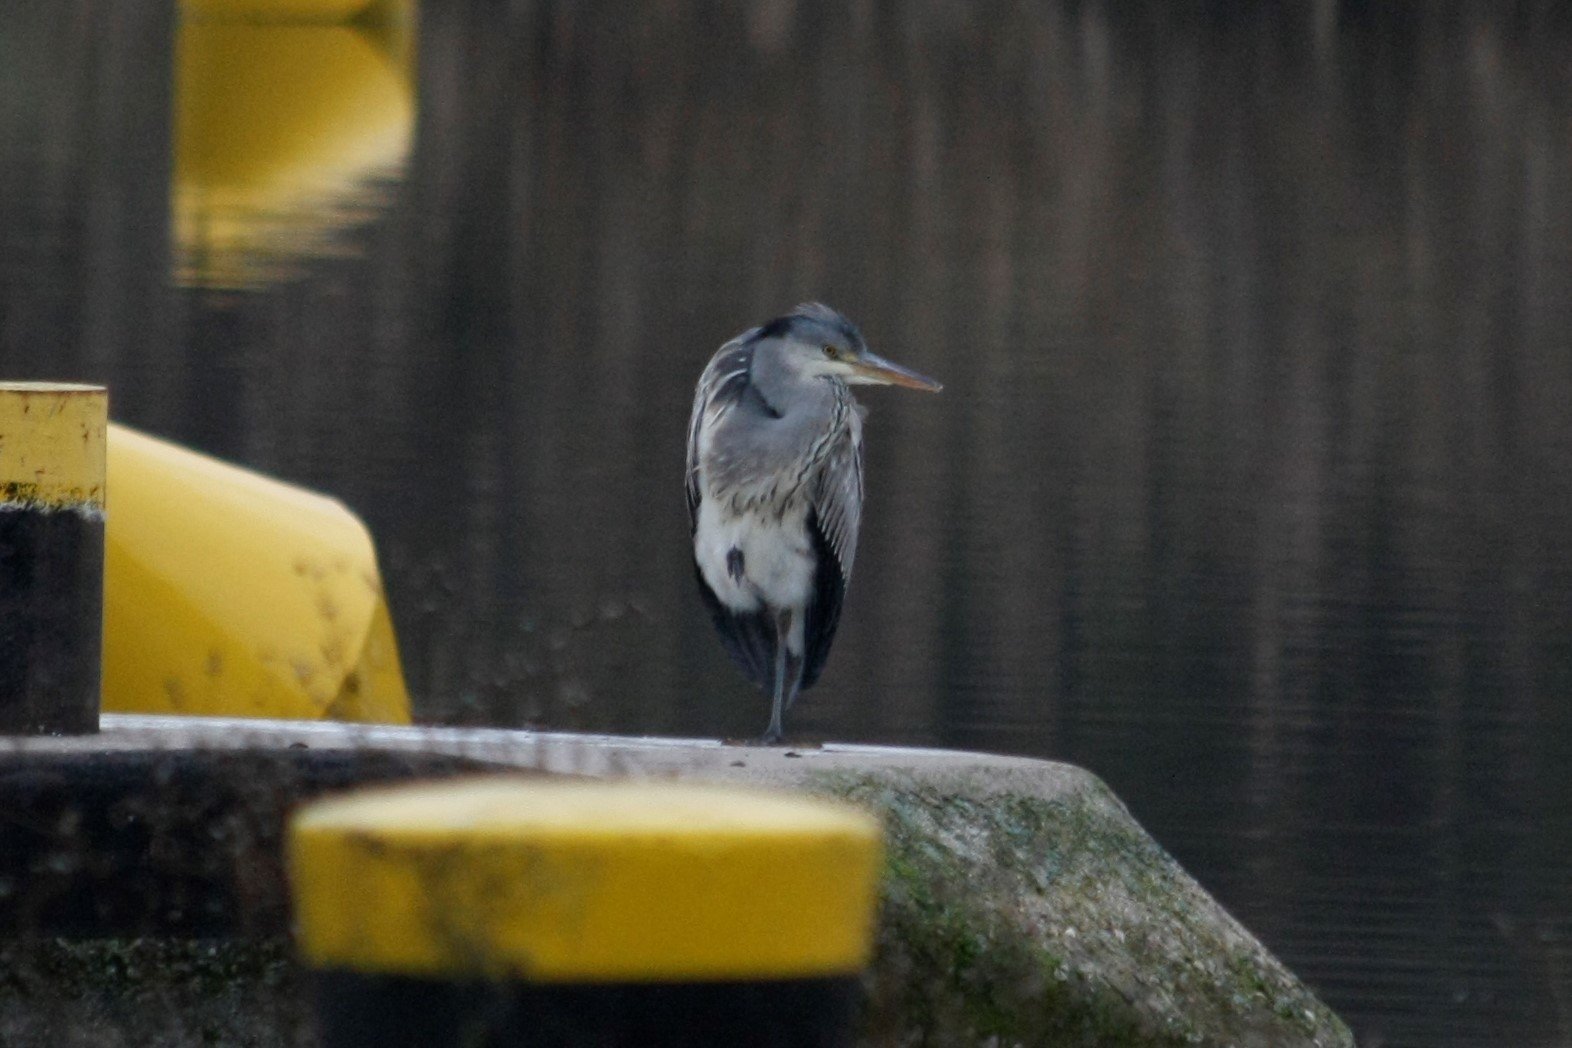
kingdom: Animalia
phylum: Chordata
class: Aves
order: Pelecaniformes
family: Ardeidae
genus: Ardea
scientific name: Ardea cinerea
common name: Grey heron
